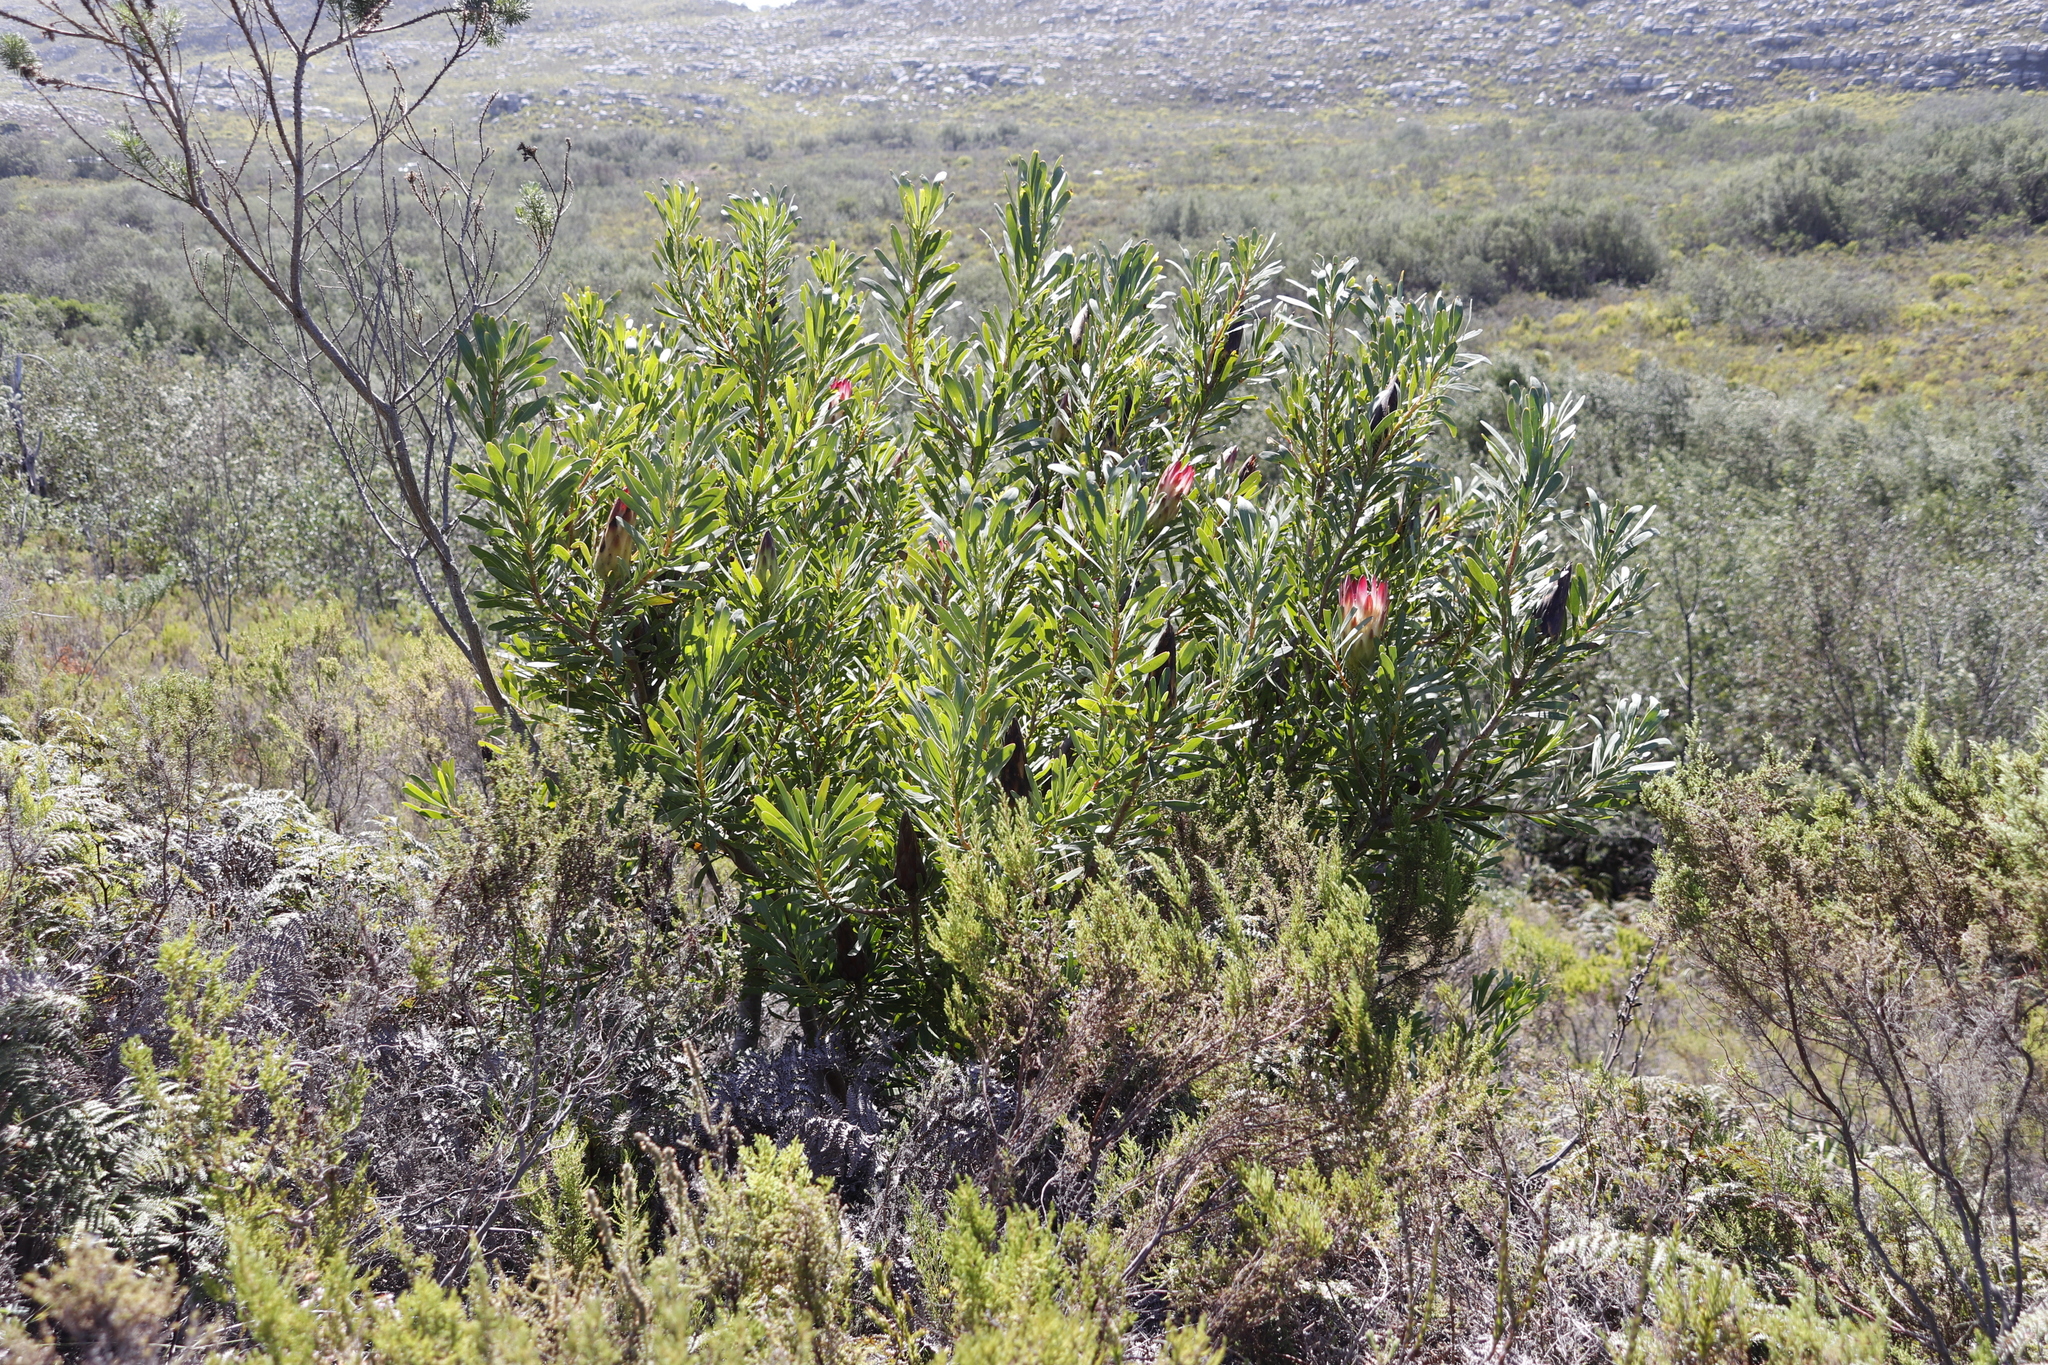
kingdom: Plantae
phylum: Tracheophyta
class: Magnoliopsida
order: Proteales
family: Proteaceae
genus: Protea
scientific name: Protea repens
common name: Sugarbush
